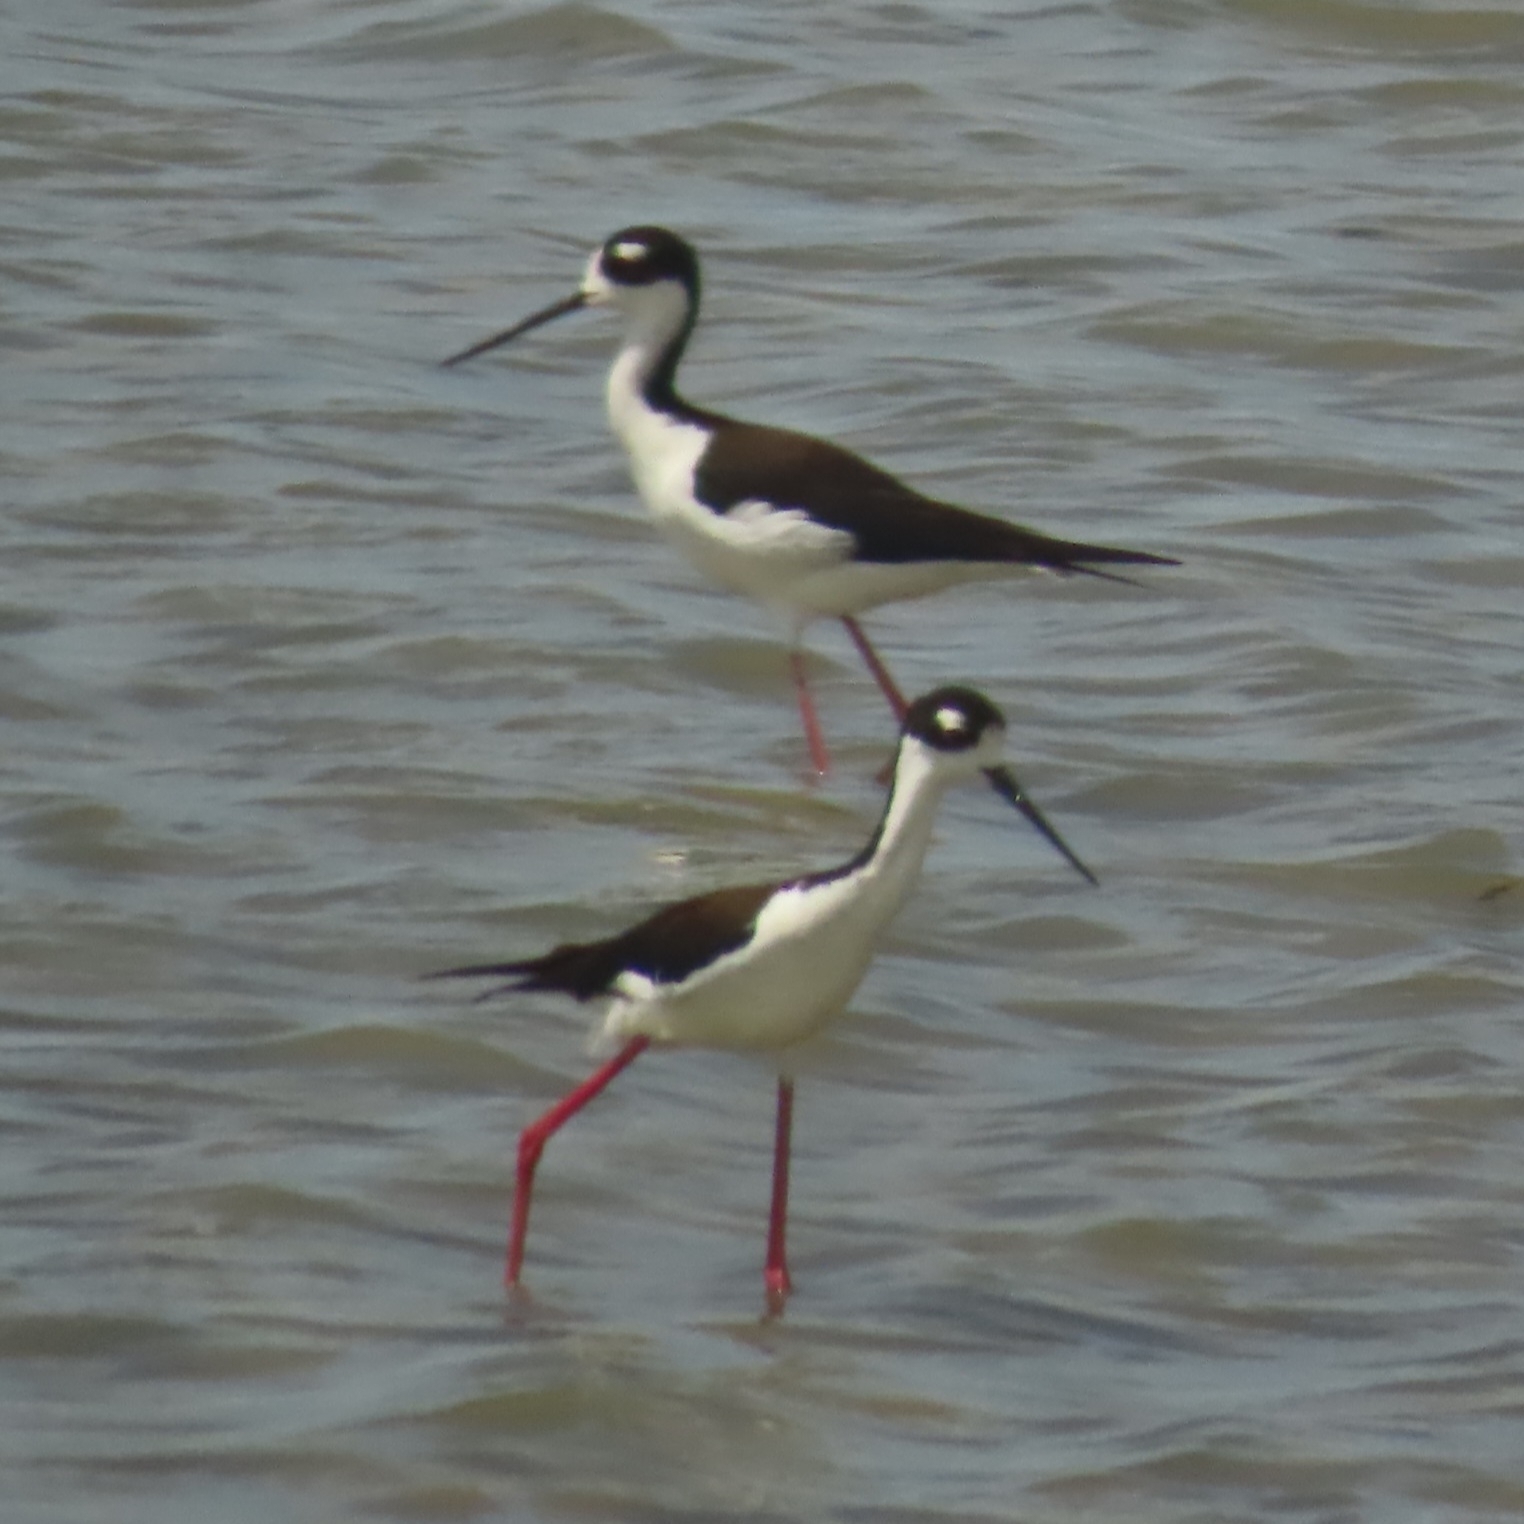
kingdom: Animalia
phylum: Chordata
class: Aves
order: Charadriiformes
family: Recurvirostridae
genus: Himantopus
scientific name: Himantopus mexicanus
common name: Black-necked stilt
